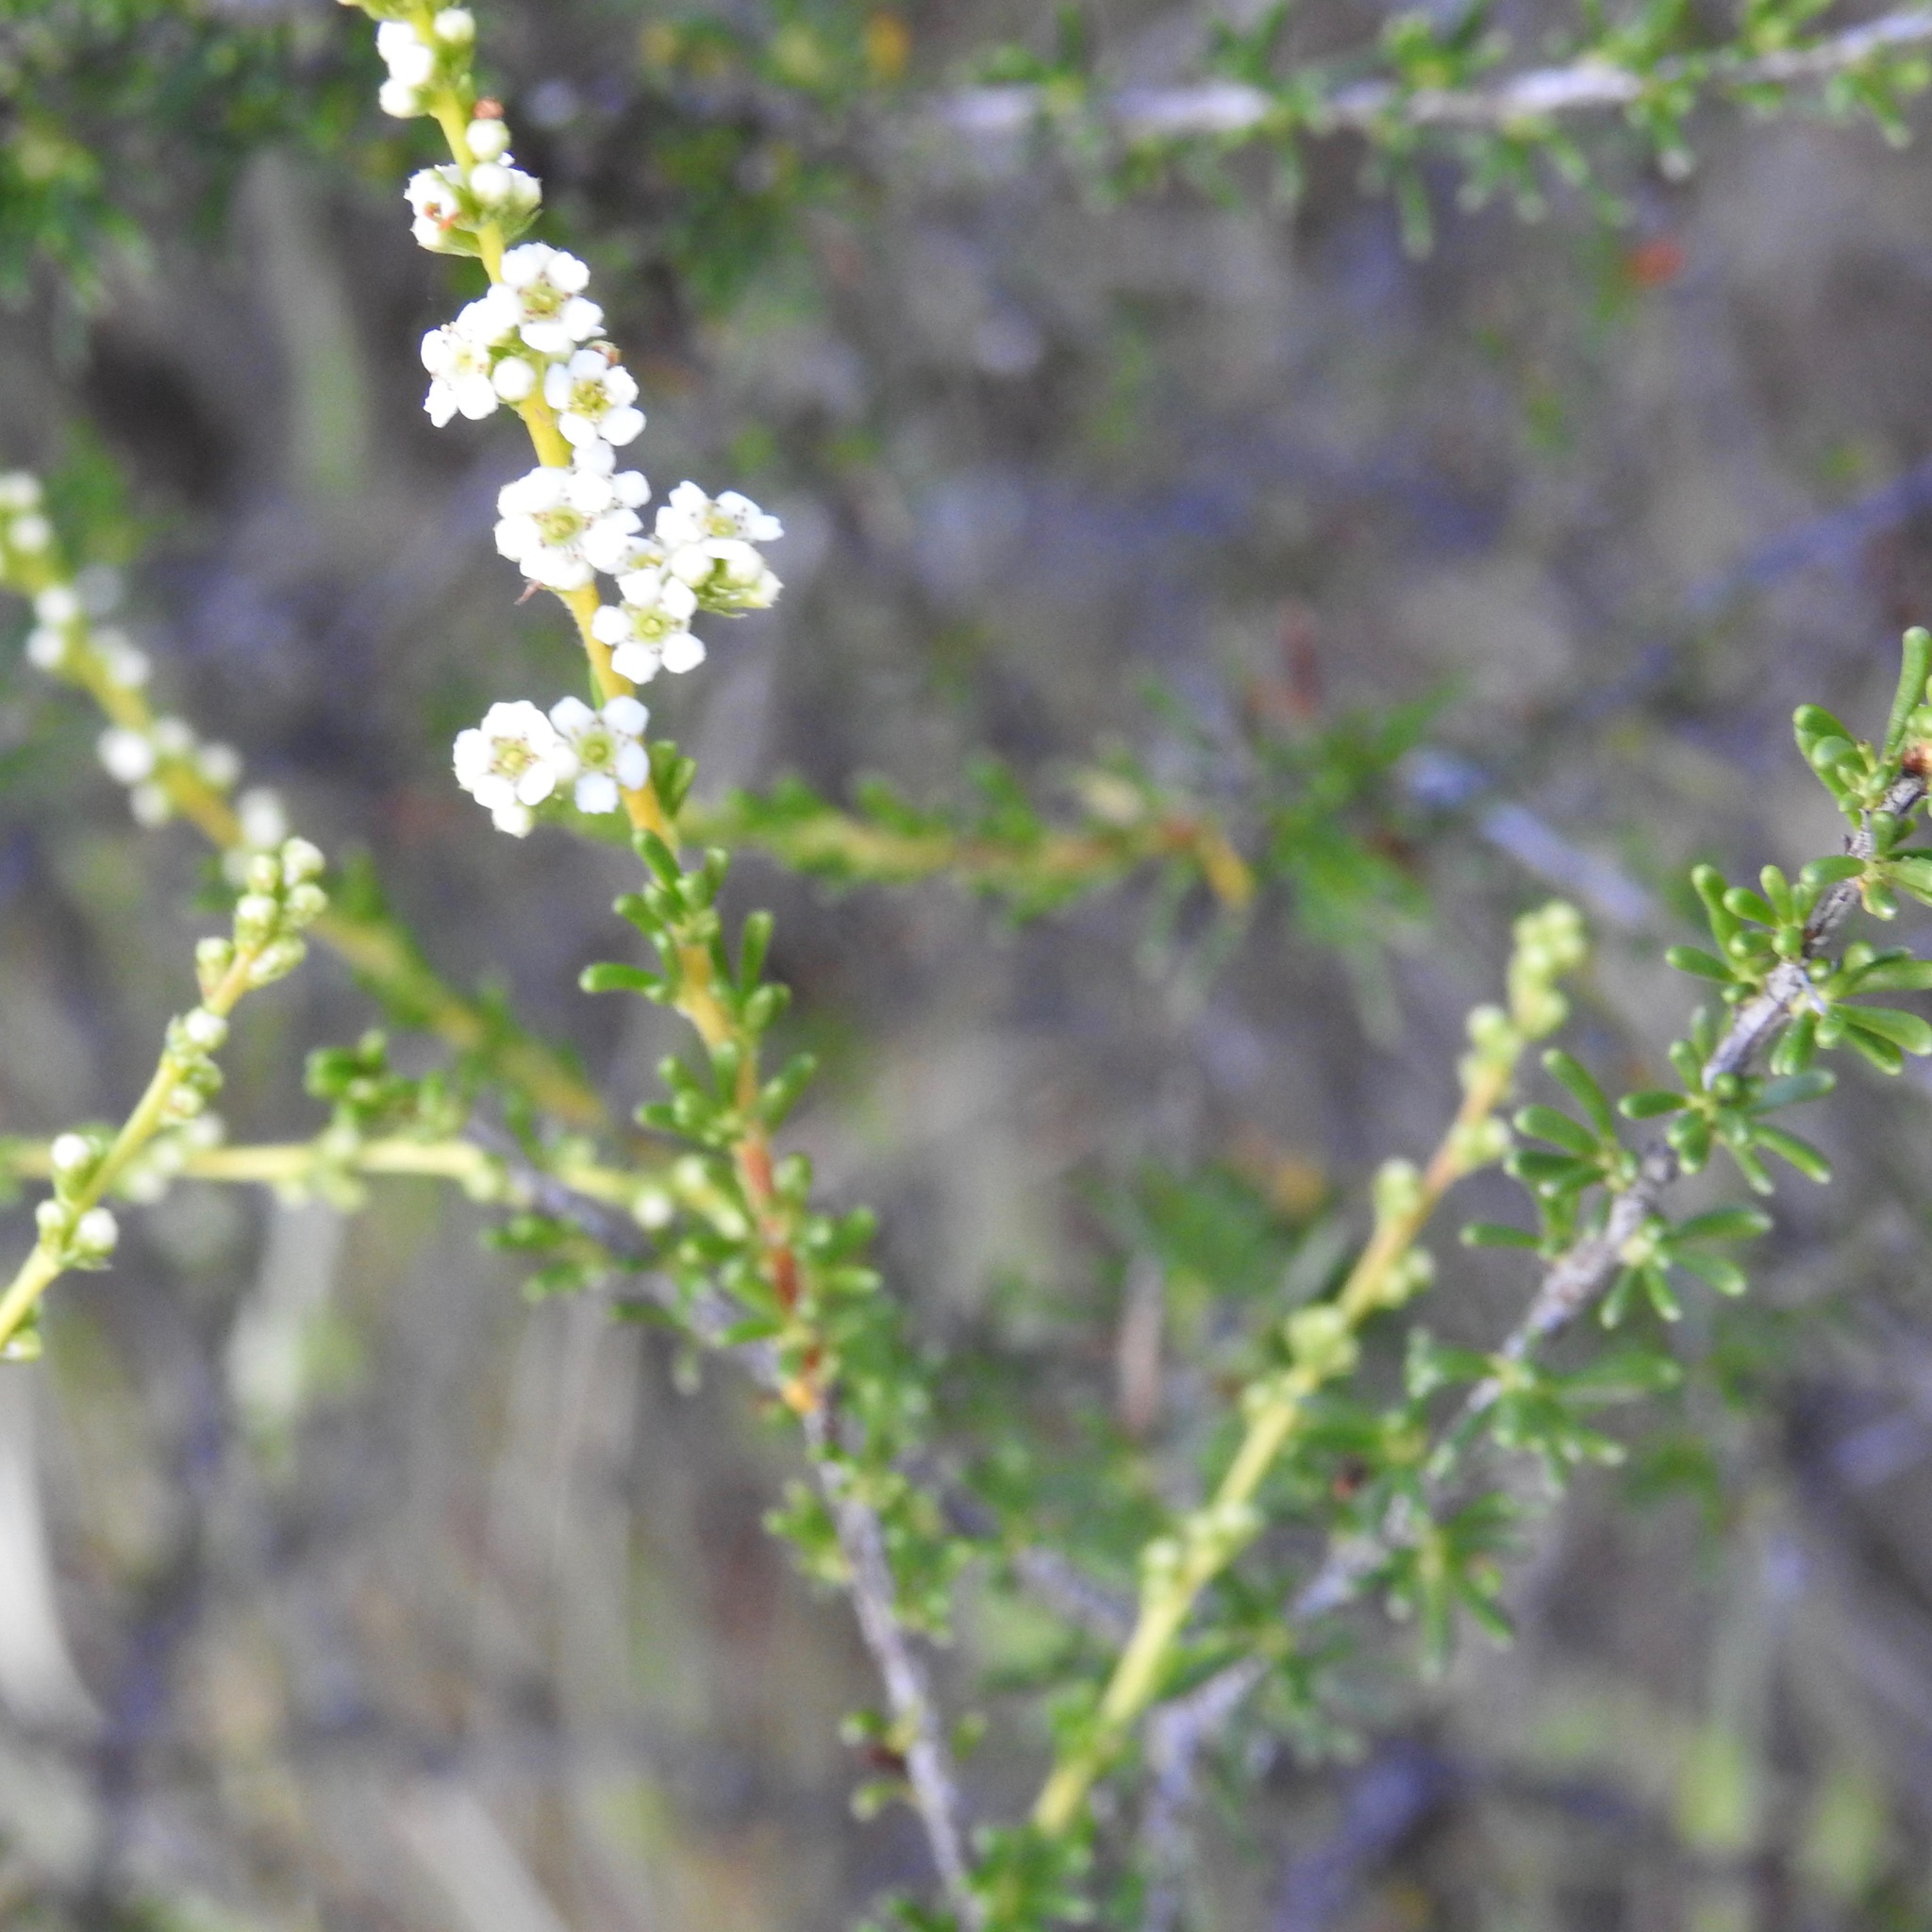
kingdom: Plantae
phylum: Tracheophyta
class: Magnoliopsida
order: Rosales
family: Rosaceae
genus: Adenostoma
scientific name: Adenostoma fasciculatum
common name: Chamise
